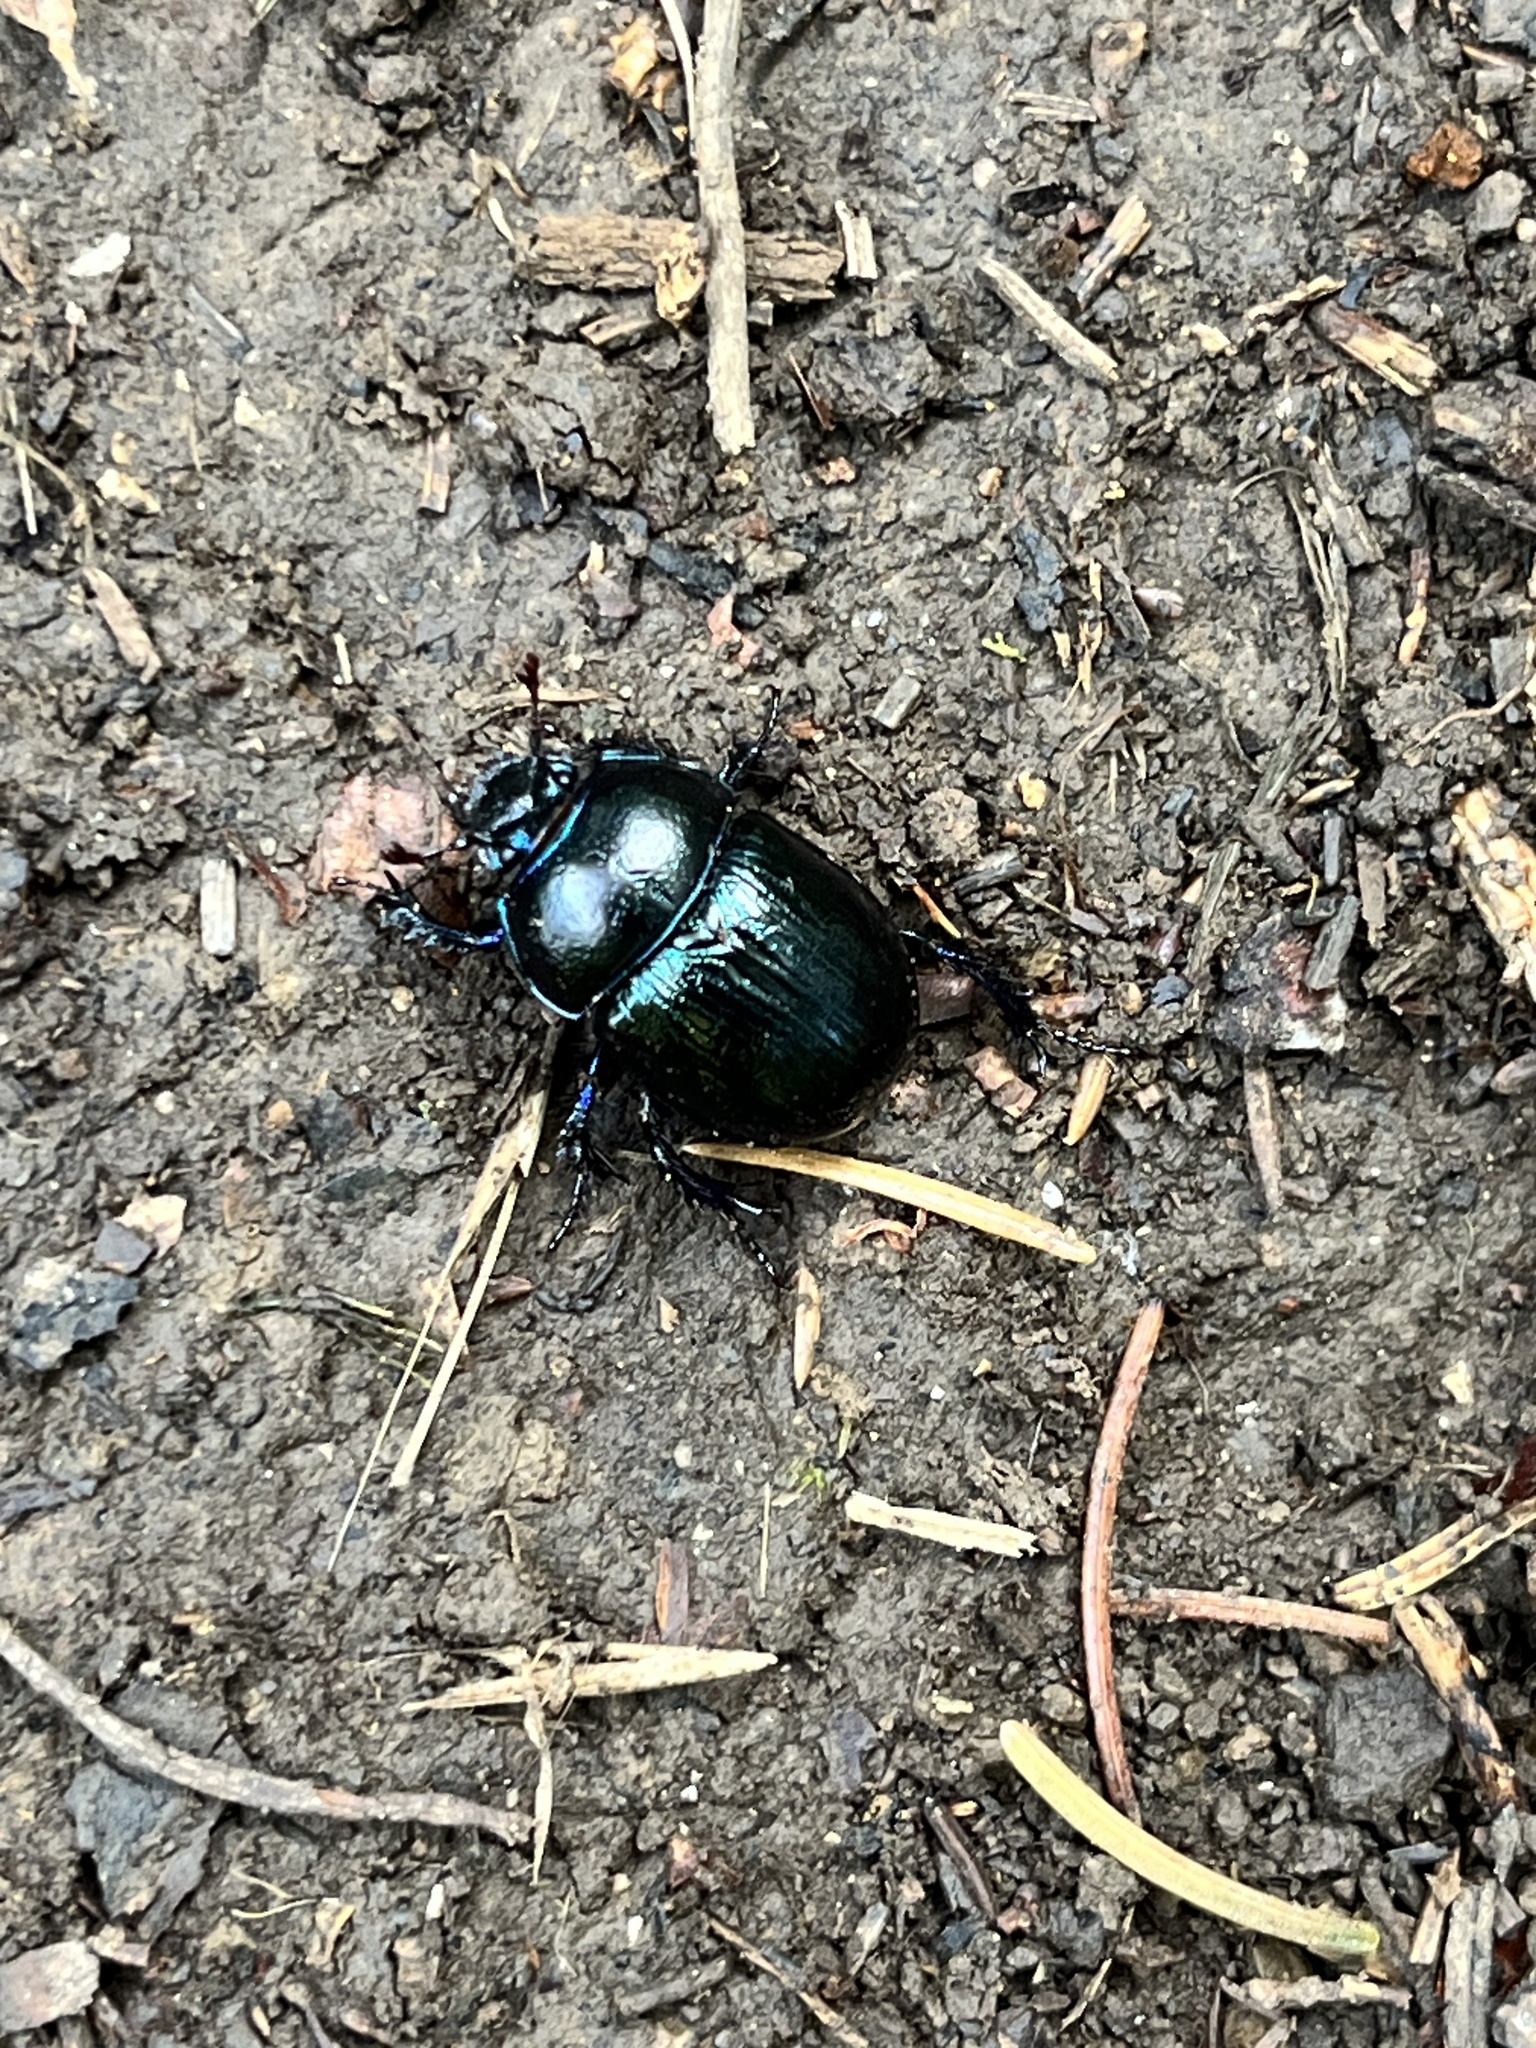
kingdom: Animalia
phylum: Arthropoda
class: Insecta
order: Coleoptera
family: Geotrupidae
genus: Anoplotrupes
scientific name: Anoplotrupes stercorosus
